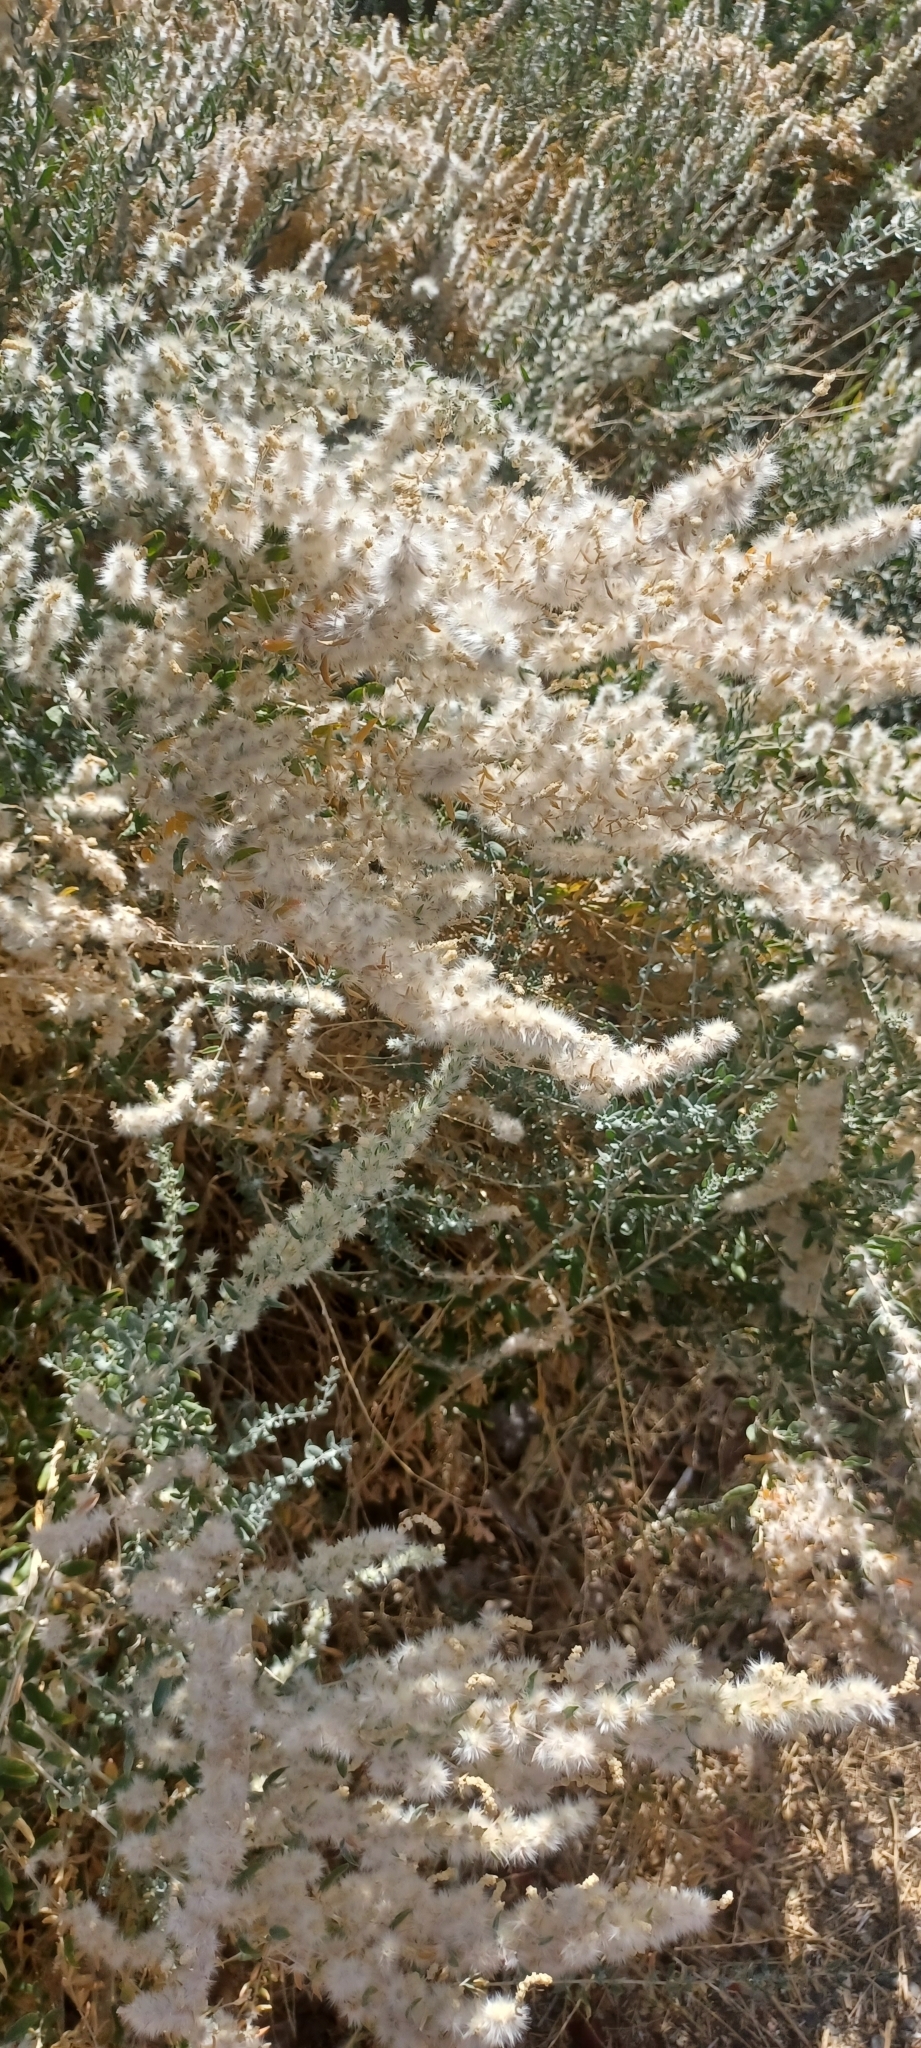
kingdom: Plantae
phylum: Tracheophyta
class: Magnoliopsida
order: Caryophyllales
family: Amaranthaceae
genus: Krascheninnikovia
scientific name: Krascheninnikovia lanata
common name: Winterfat
